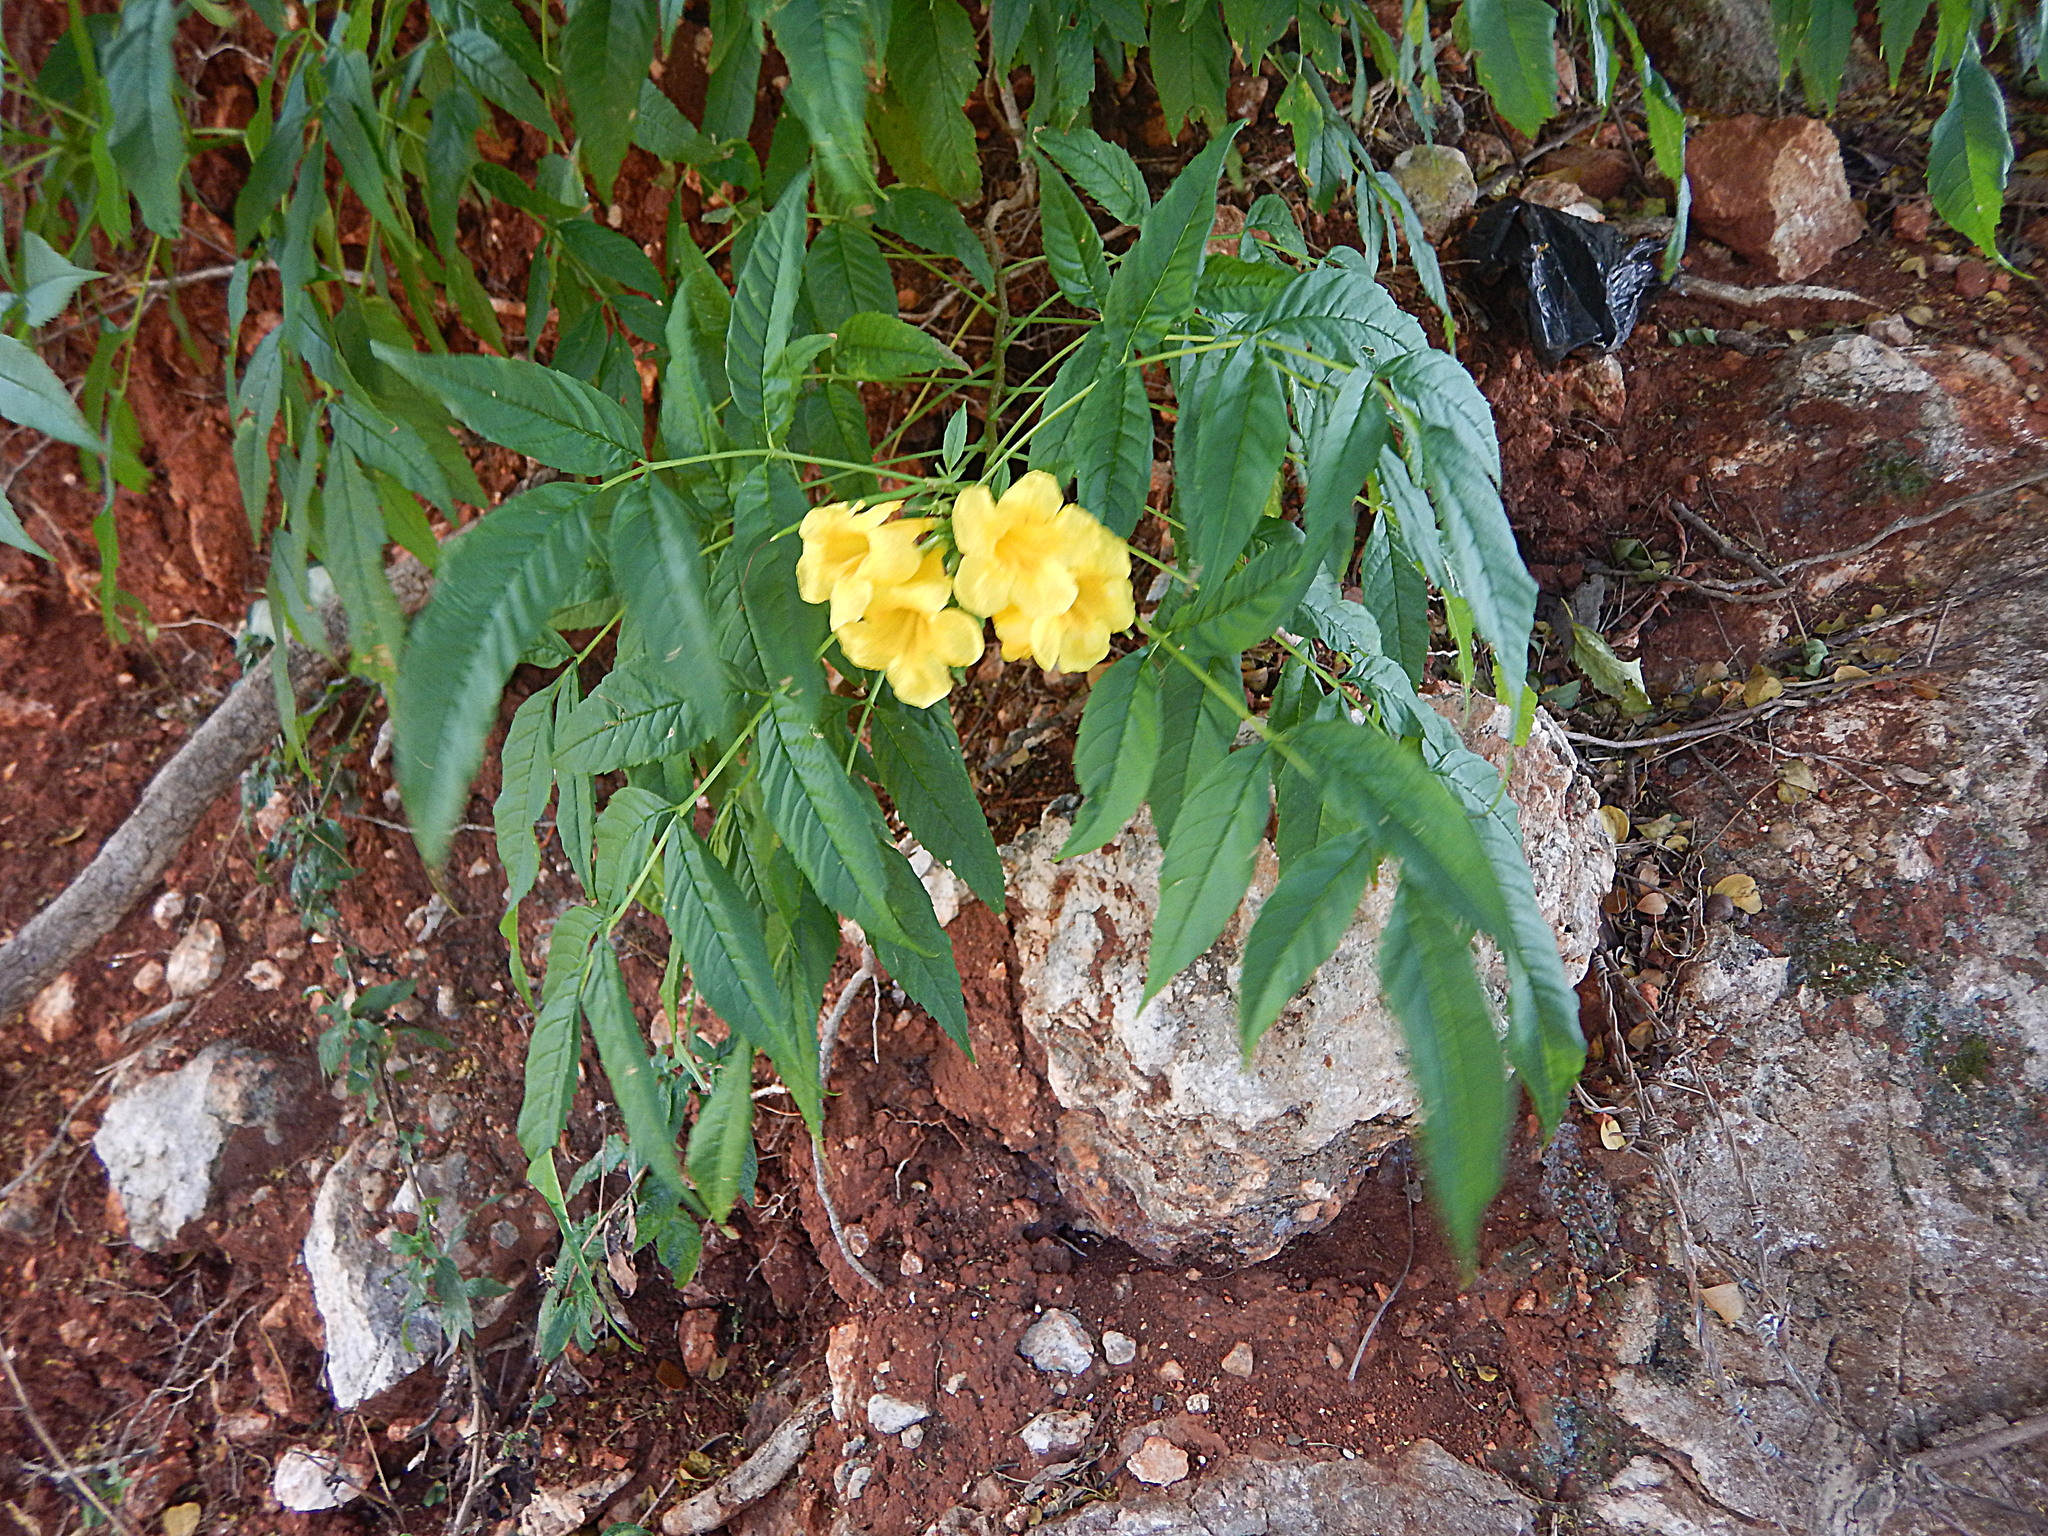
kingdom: Plantae
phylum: Tracheophyta
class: Magnoliopsida
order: Lamiales
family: Bignoniaceae
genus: Tecoma
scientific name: Tecoma stans
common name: Yellow trumpetbush
